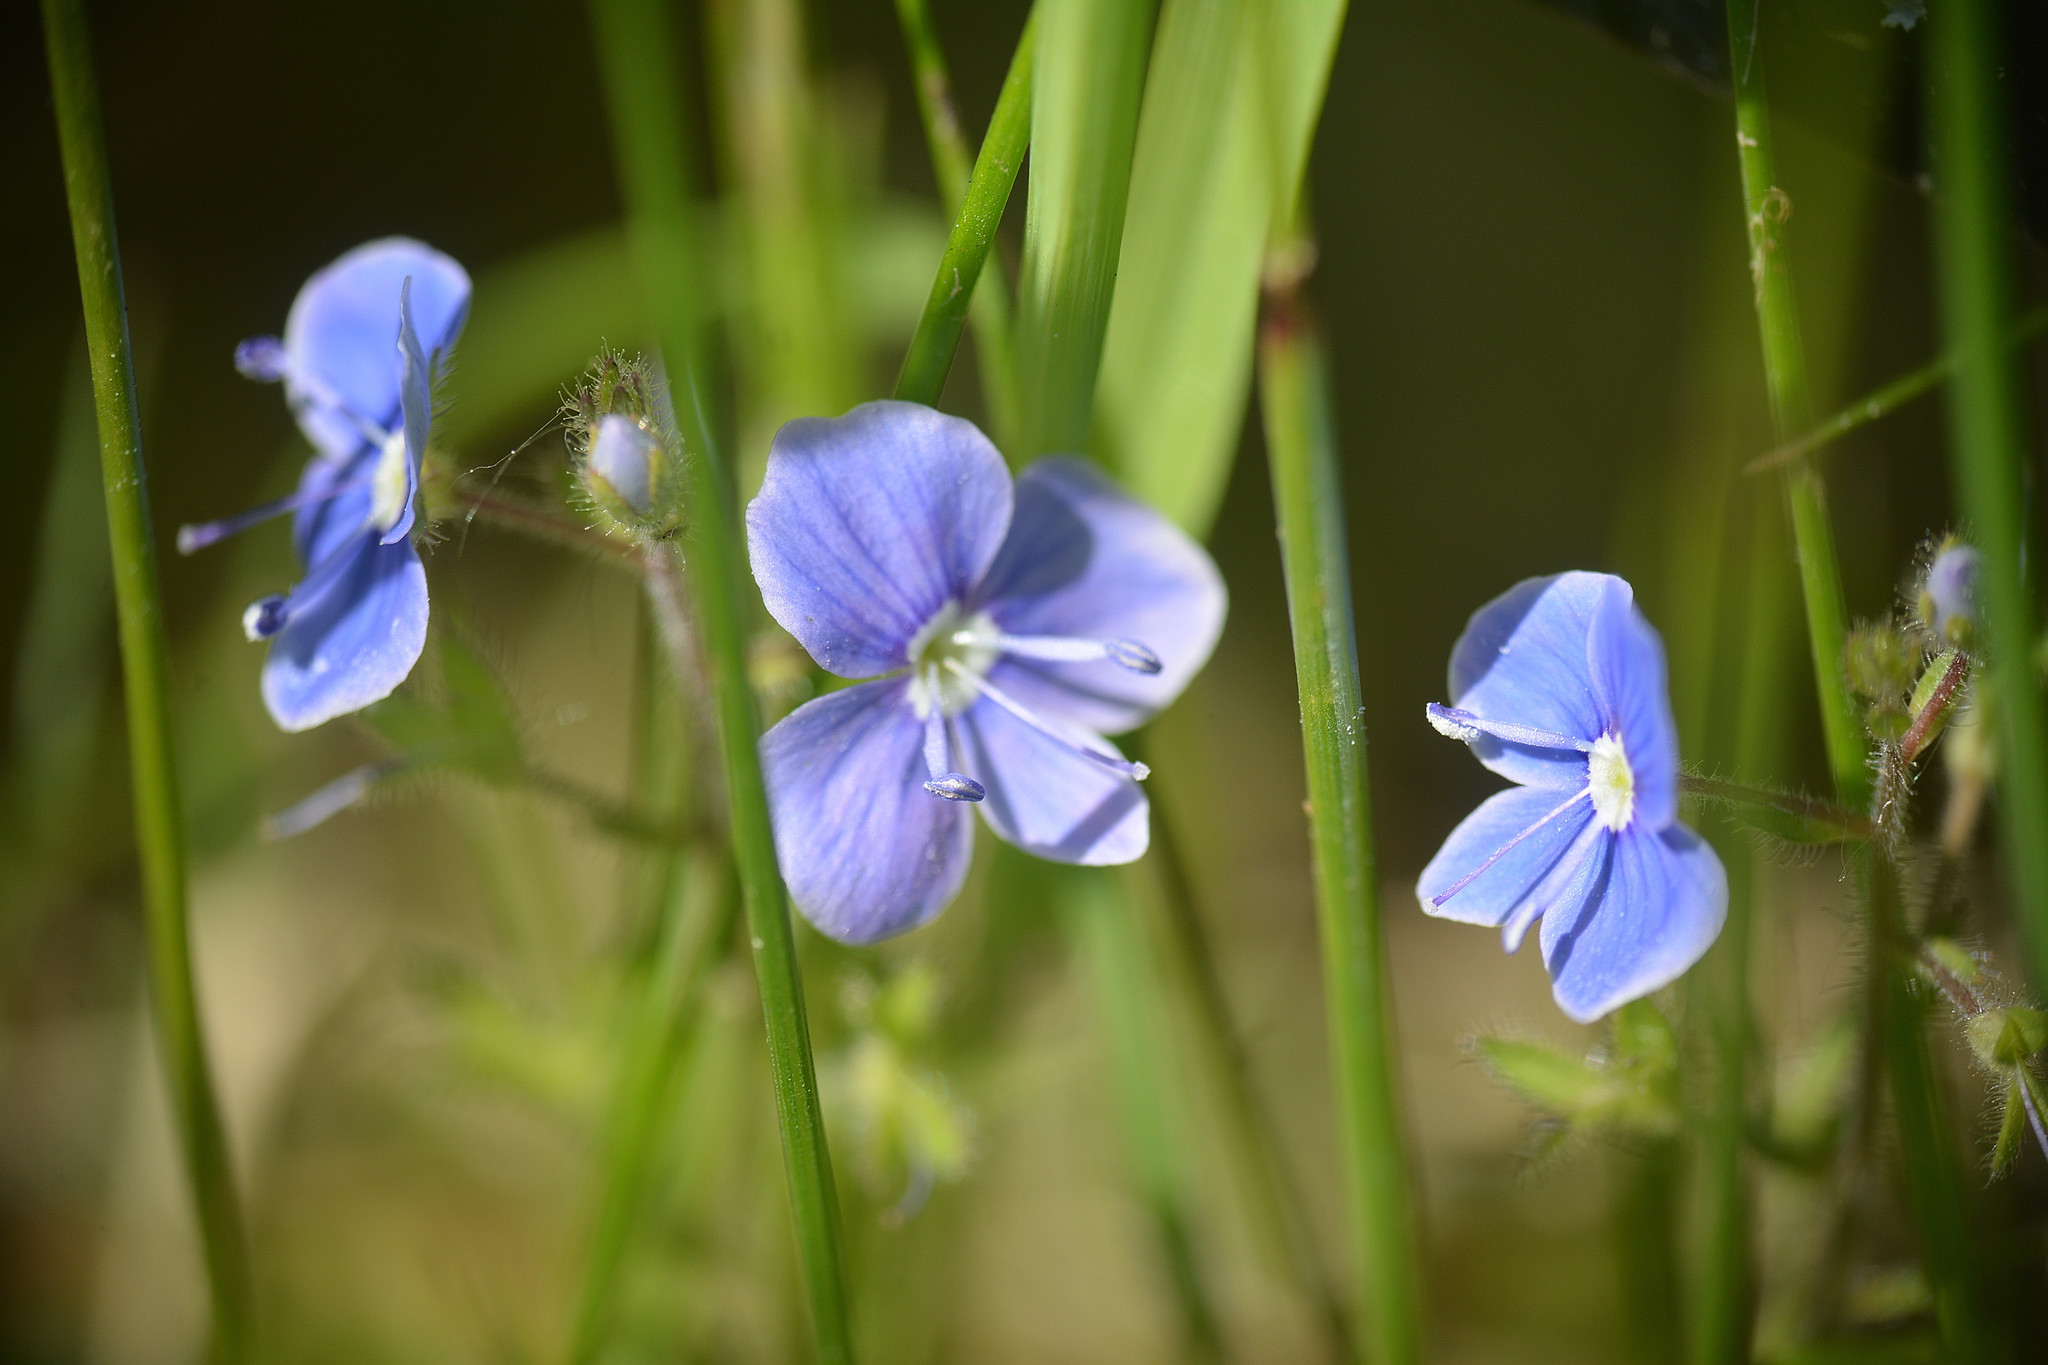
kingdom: Plantae
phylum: Tracheophyta
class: Magnoliopsida
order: Lamiales
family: Plantaginaceae
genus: Veronica
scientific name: Veronica chamaedrys
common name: Germander speedwell
